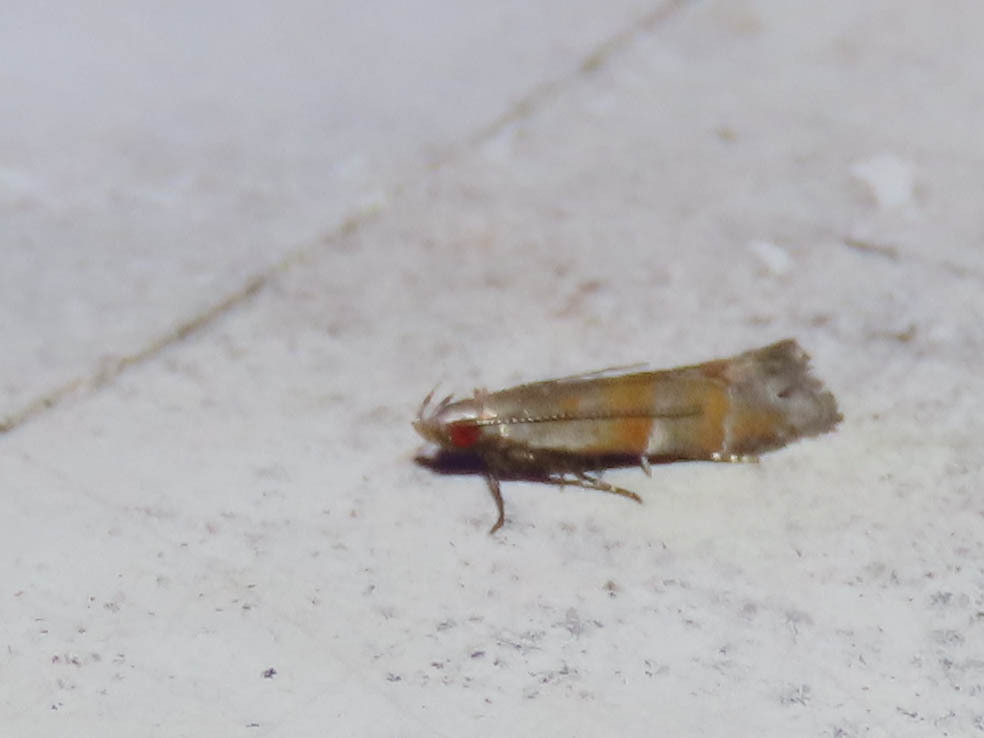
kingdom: Animalia
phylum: Arthropoda
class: Insecta
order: Lepidoptera
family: Gelechiidae
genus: Battaristis
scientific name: Battaristis vittella
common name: Orange stripe-backed moth
